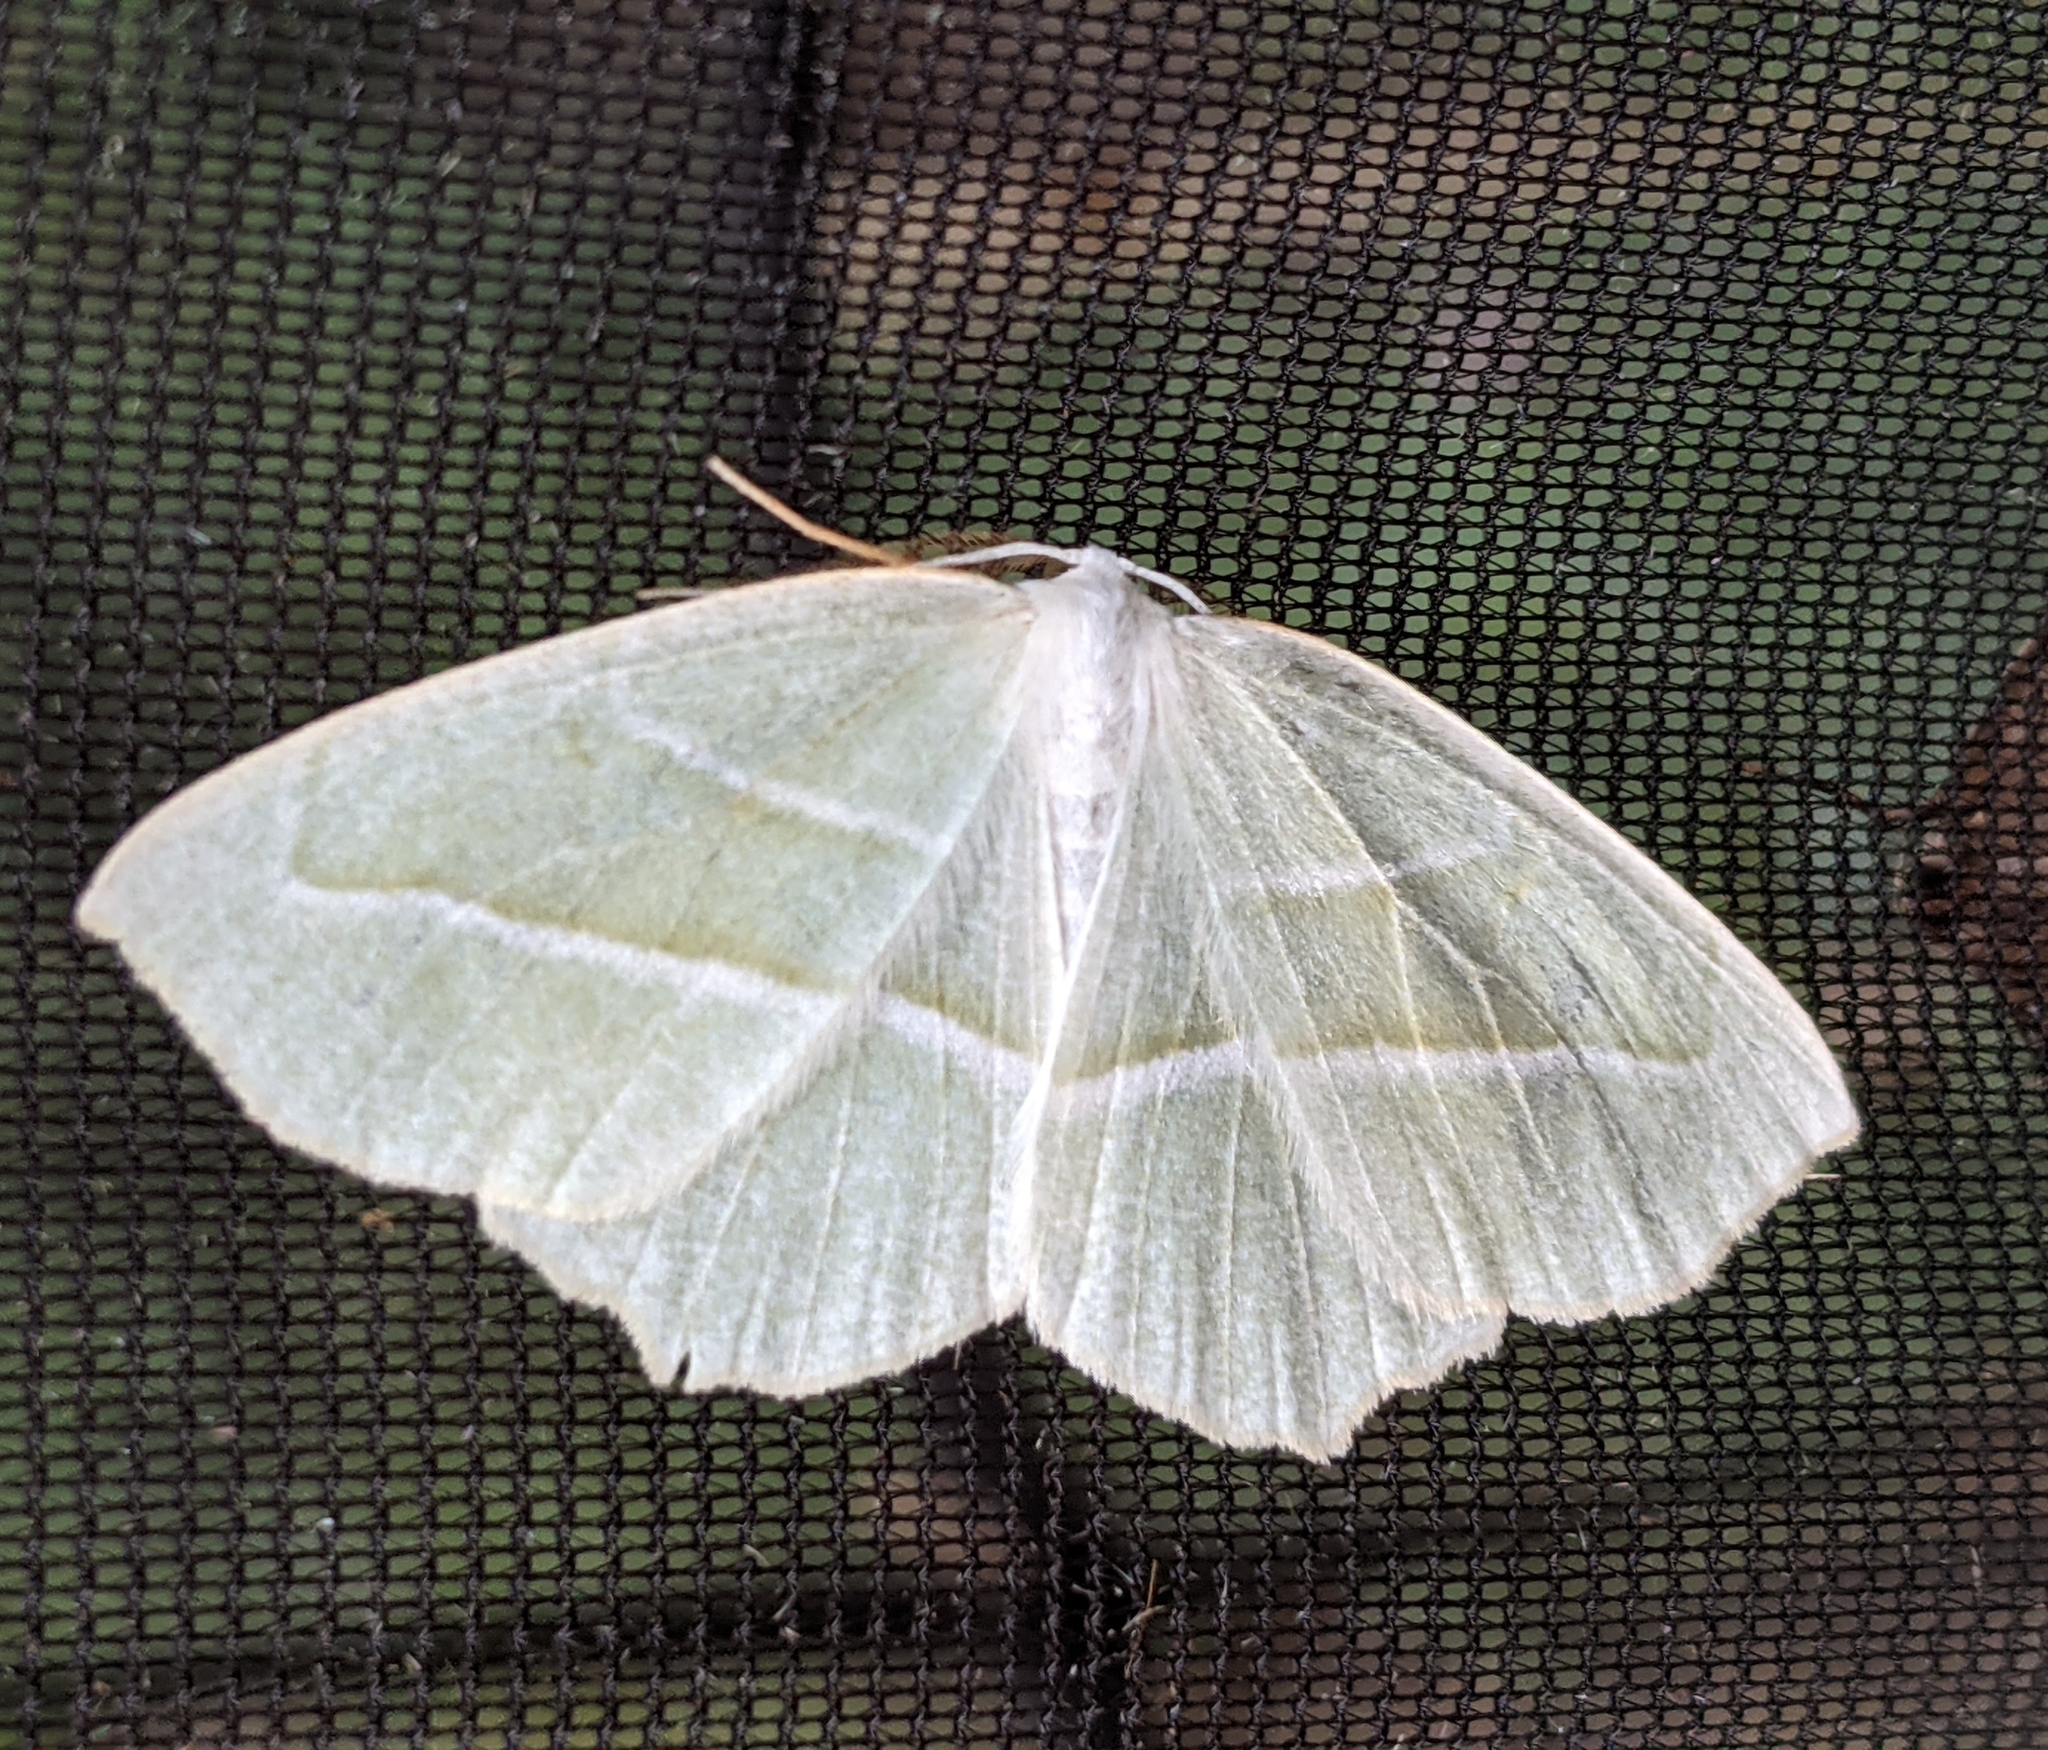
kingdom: Animalia
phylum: Arthropoda
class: Insecta
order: Lepidoptera
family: Geometridae
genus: Campaea
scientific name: Campaea perlata
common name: Fringed looper
